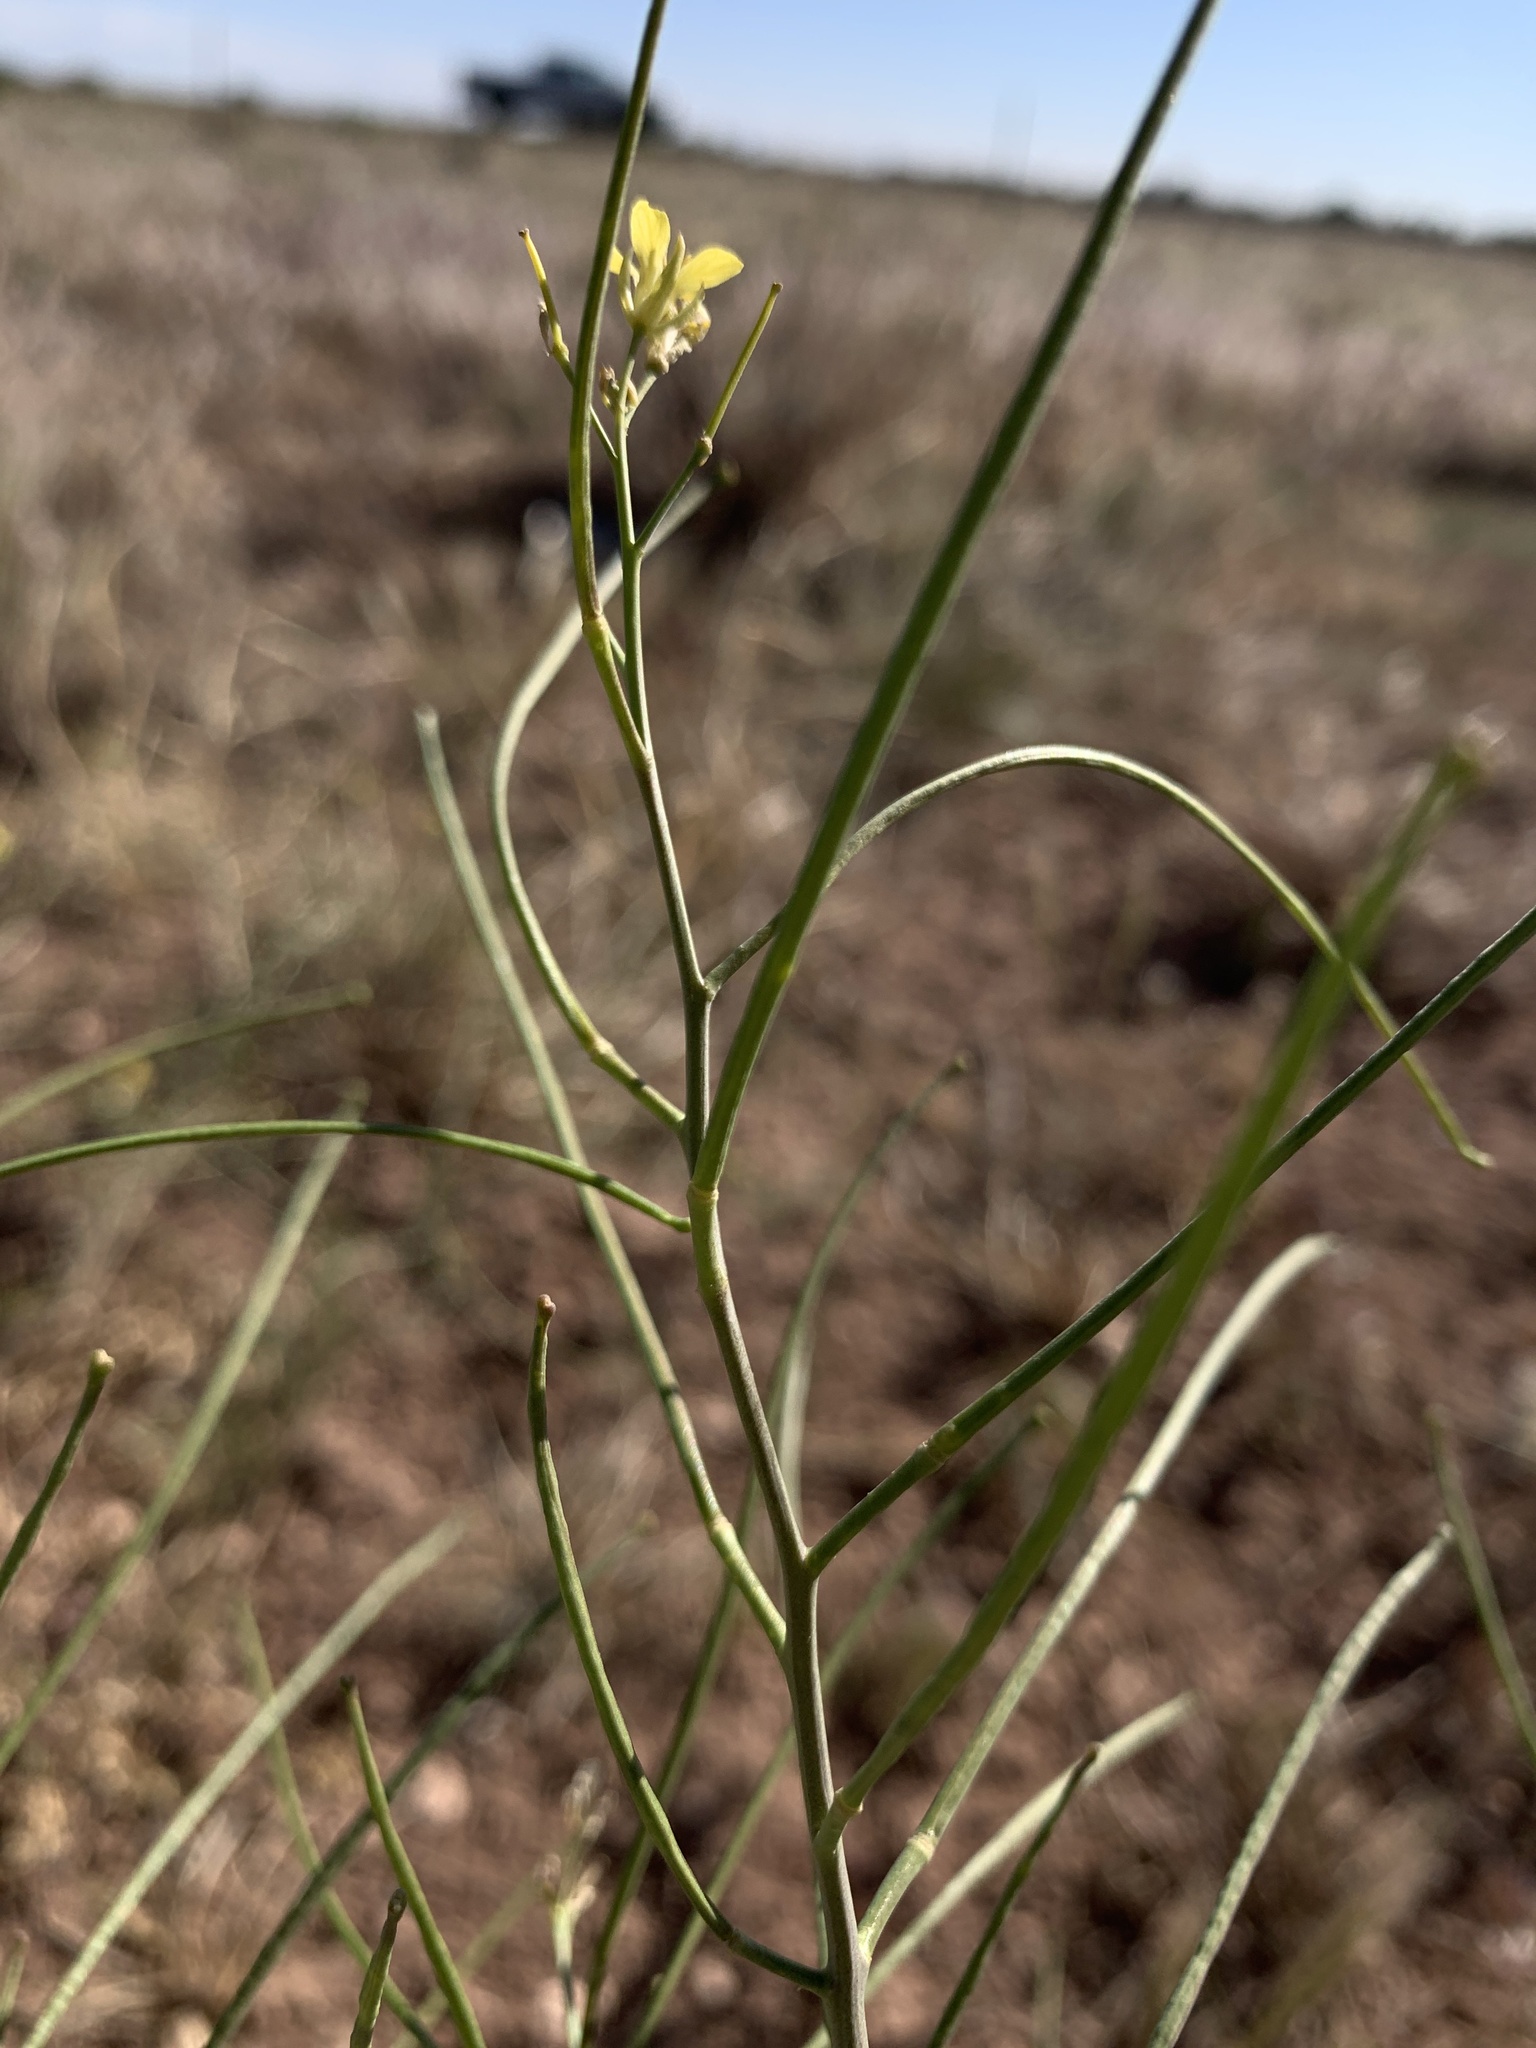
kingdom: Plantae
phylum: Tracheophyta
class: Magnoliopsida
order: Brassicales
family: Brassicaceae
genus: Sisymbrium
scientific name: Sisymbrium altissimum
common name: Tall rocket
